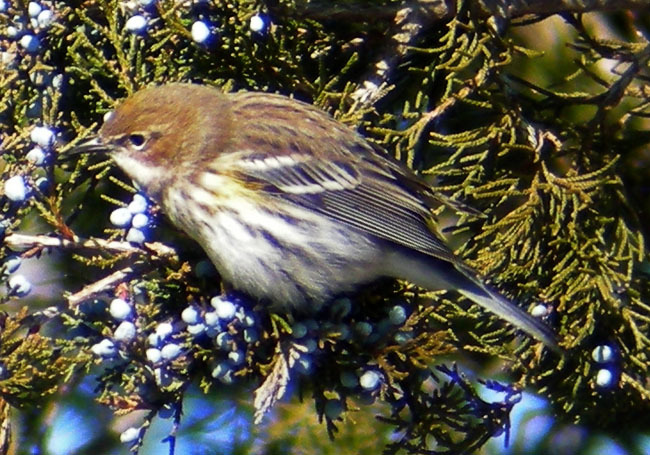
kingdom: Animalia
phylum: Chordata
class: Aves
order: Passeriformes
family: Parulidae
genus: Setophaga
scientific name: Setophaga coronata
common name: Myrtle warbler
